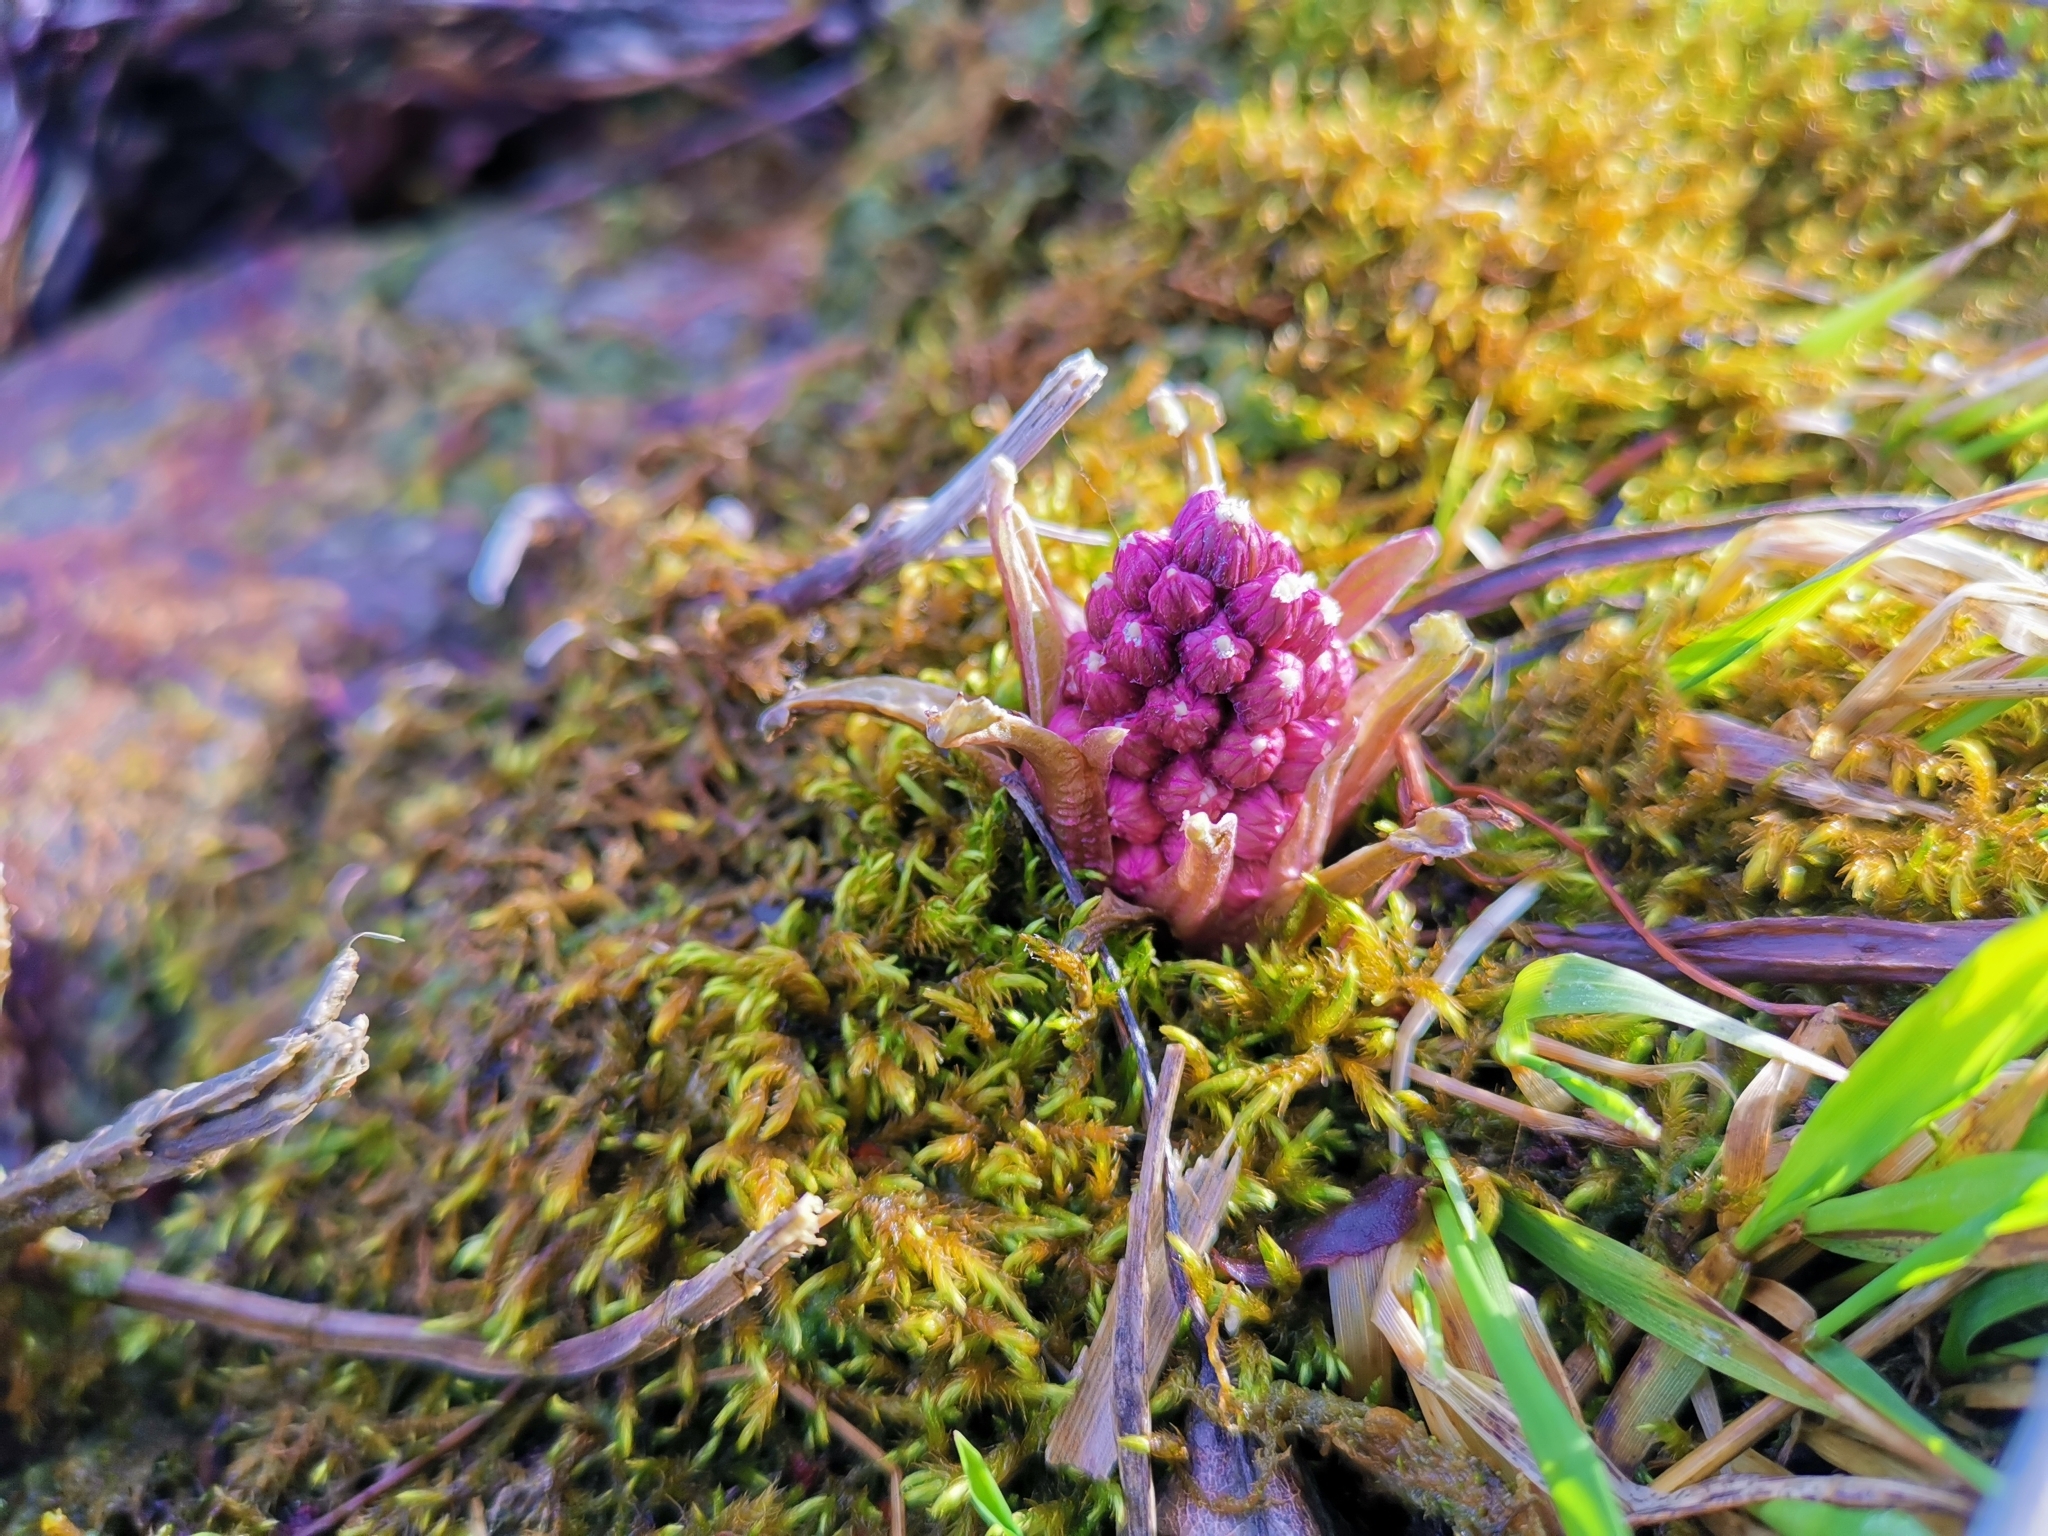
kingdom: Plantae
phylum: Tracheophyta
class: Magnoliopsida
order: Asterales
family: Asteraceae
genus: Petasites
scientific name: Petasites hybridus
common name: Butterbur
